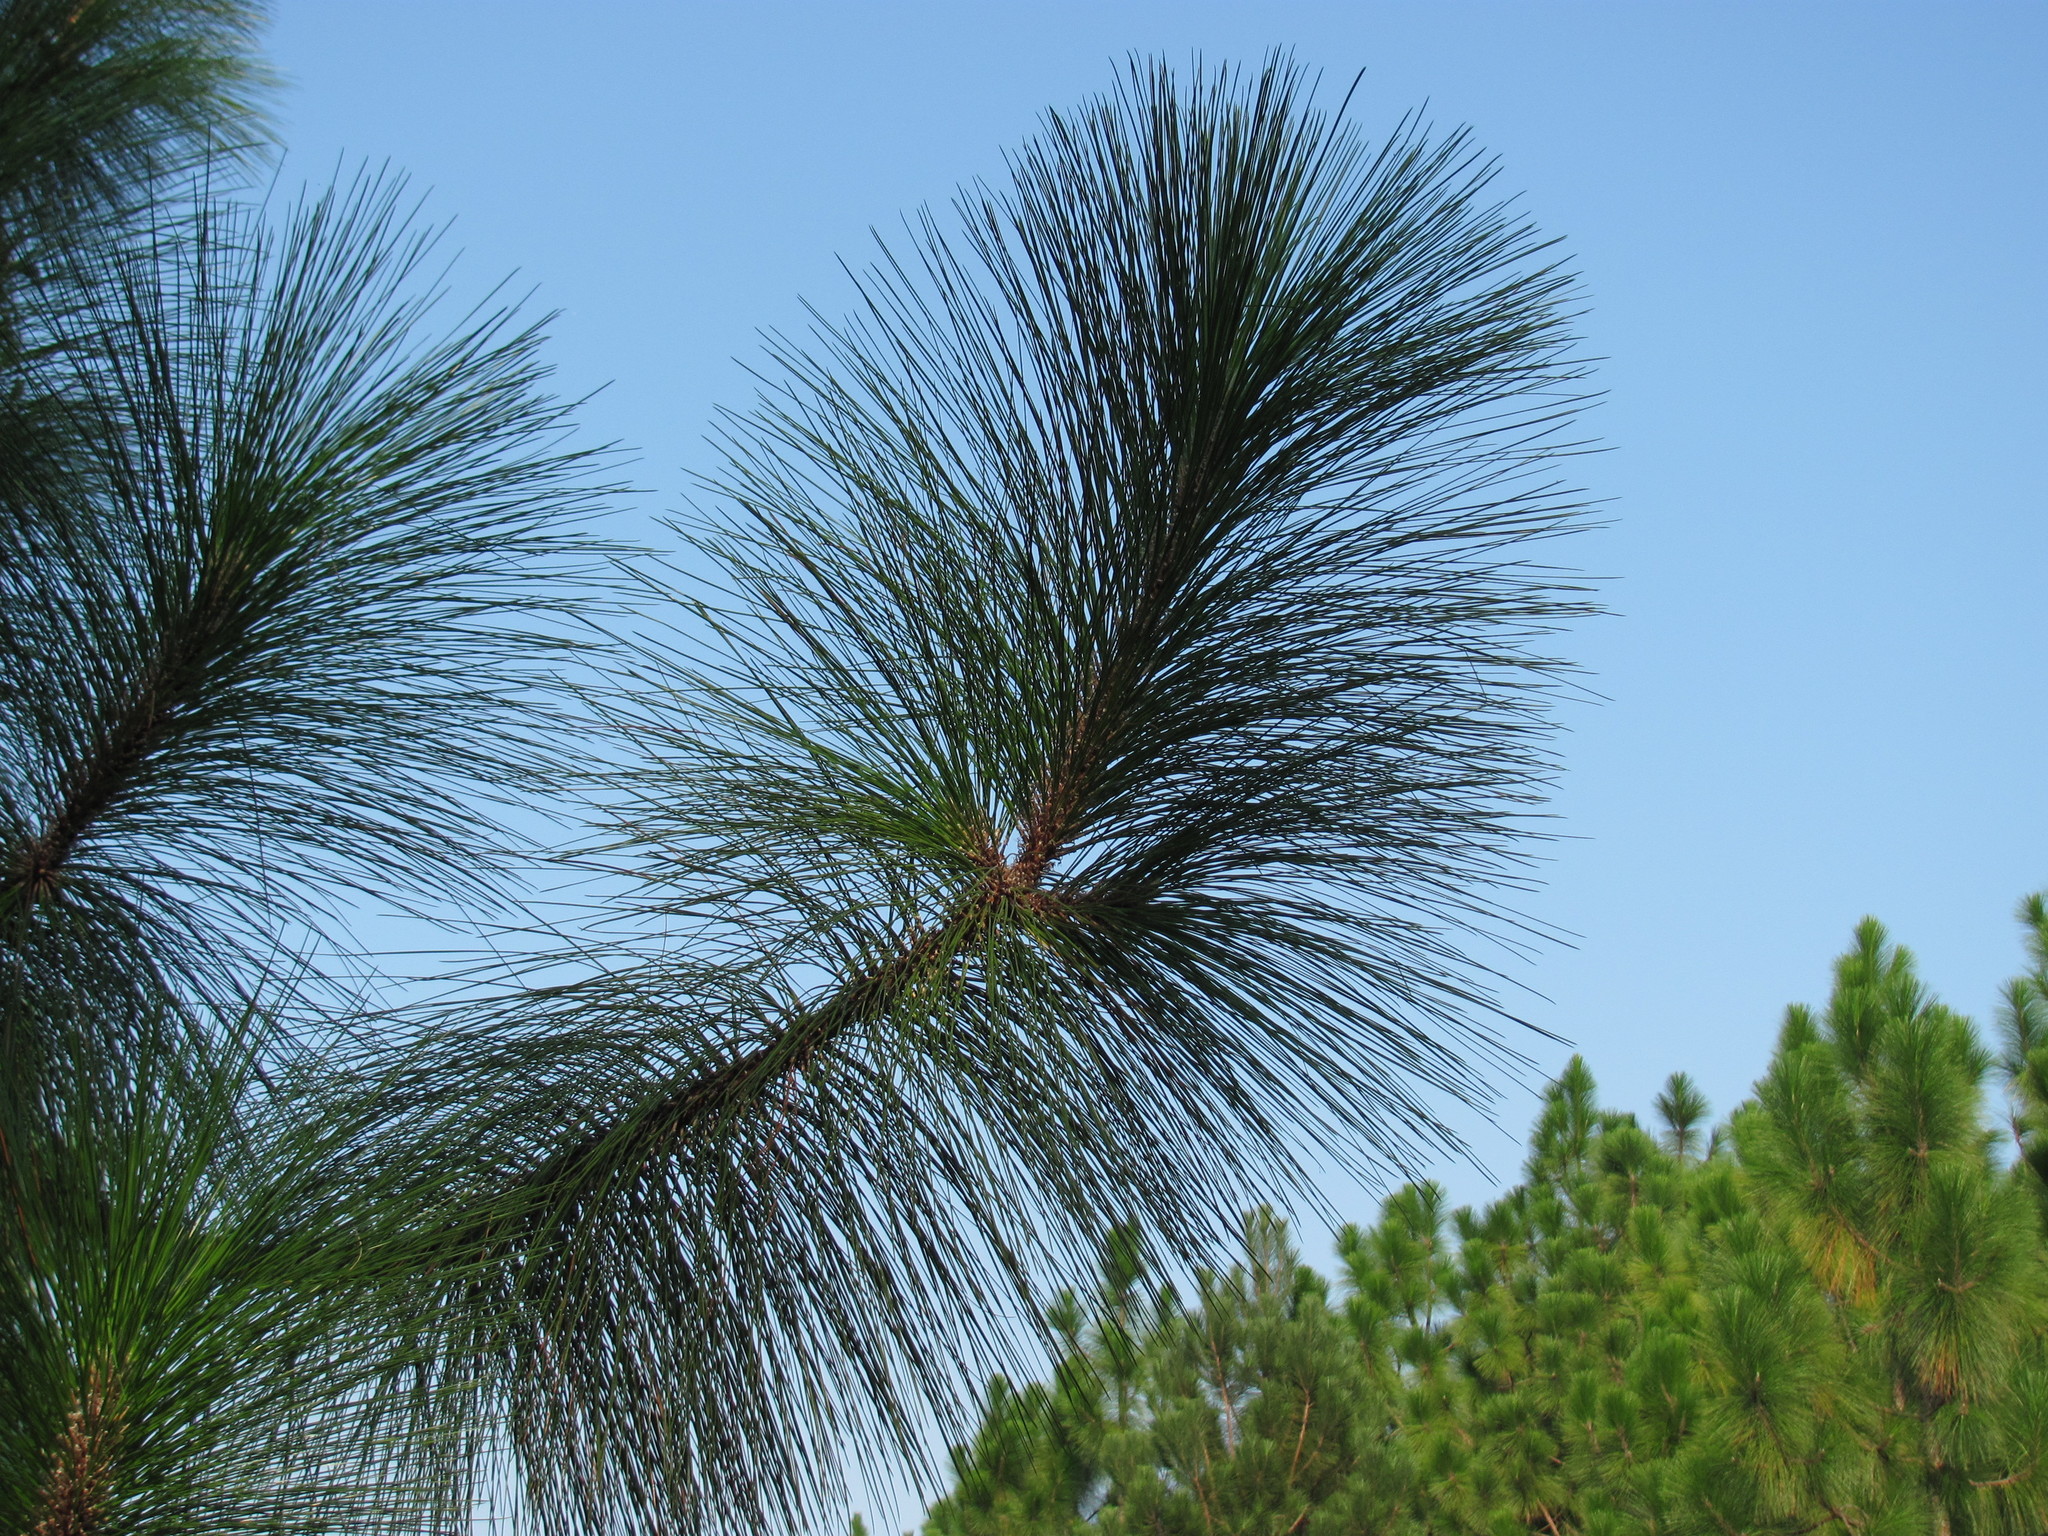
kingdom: Plantae
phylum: Tracheophyta
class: Pinopsida
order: Pinales
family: Pinaceae
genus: Pinus
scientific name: Pinus palustris
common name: Longleaf pine
